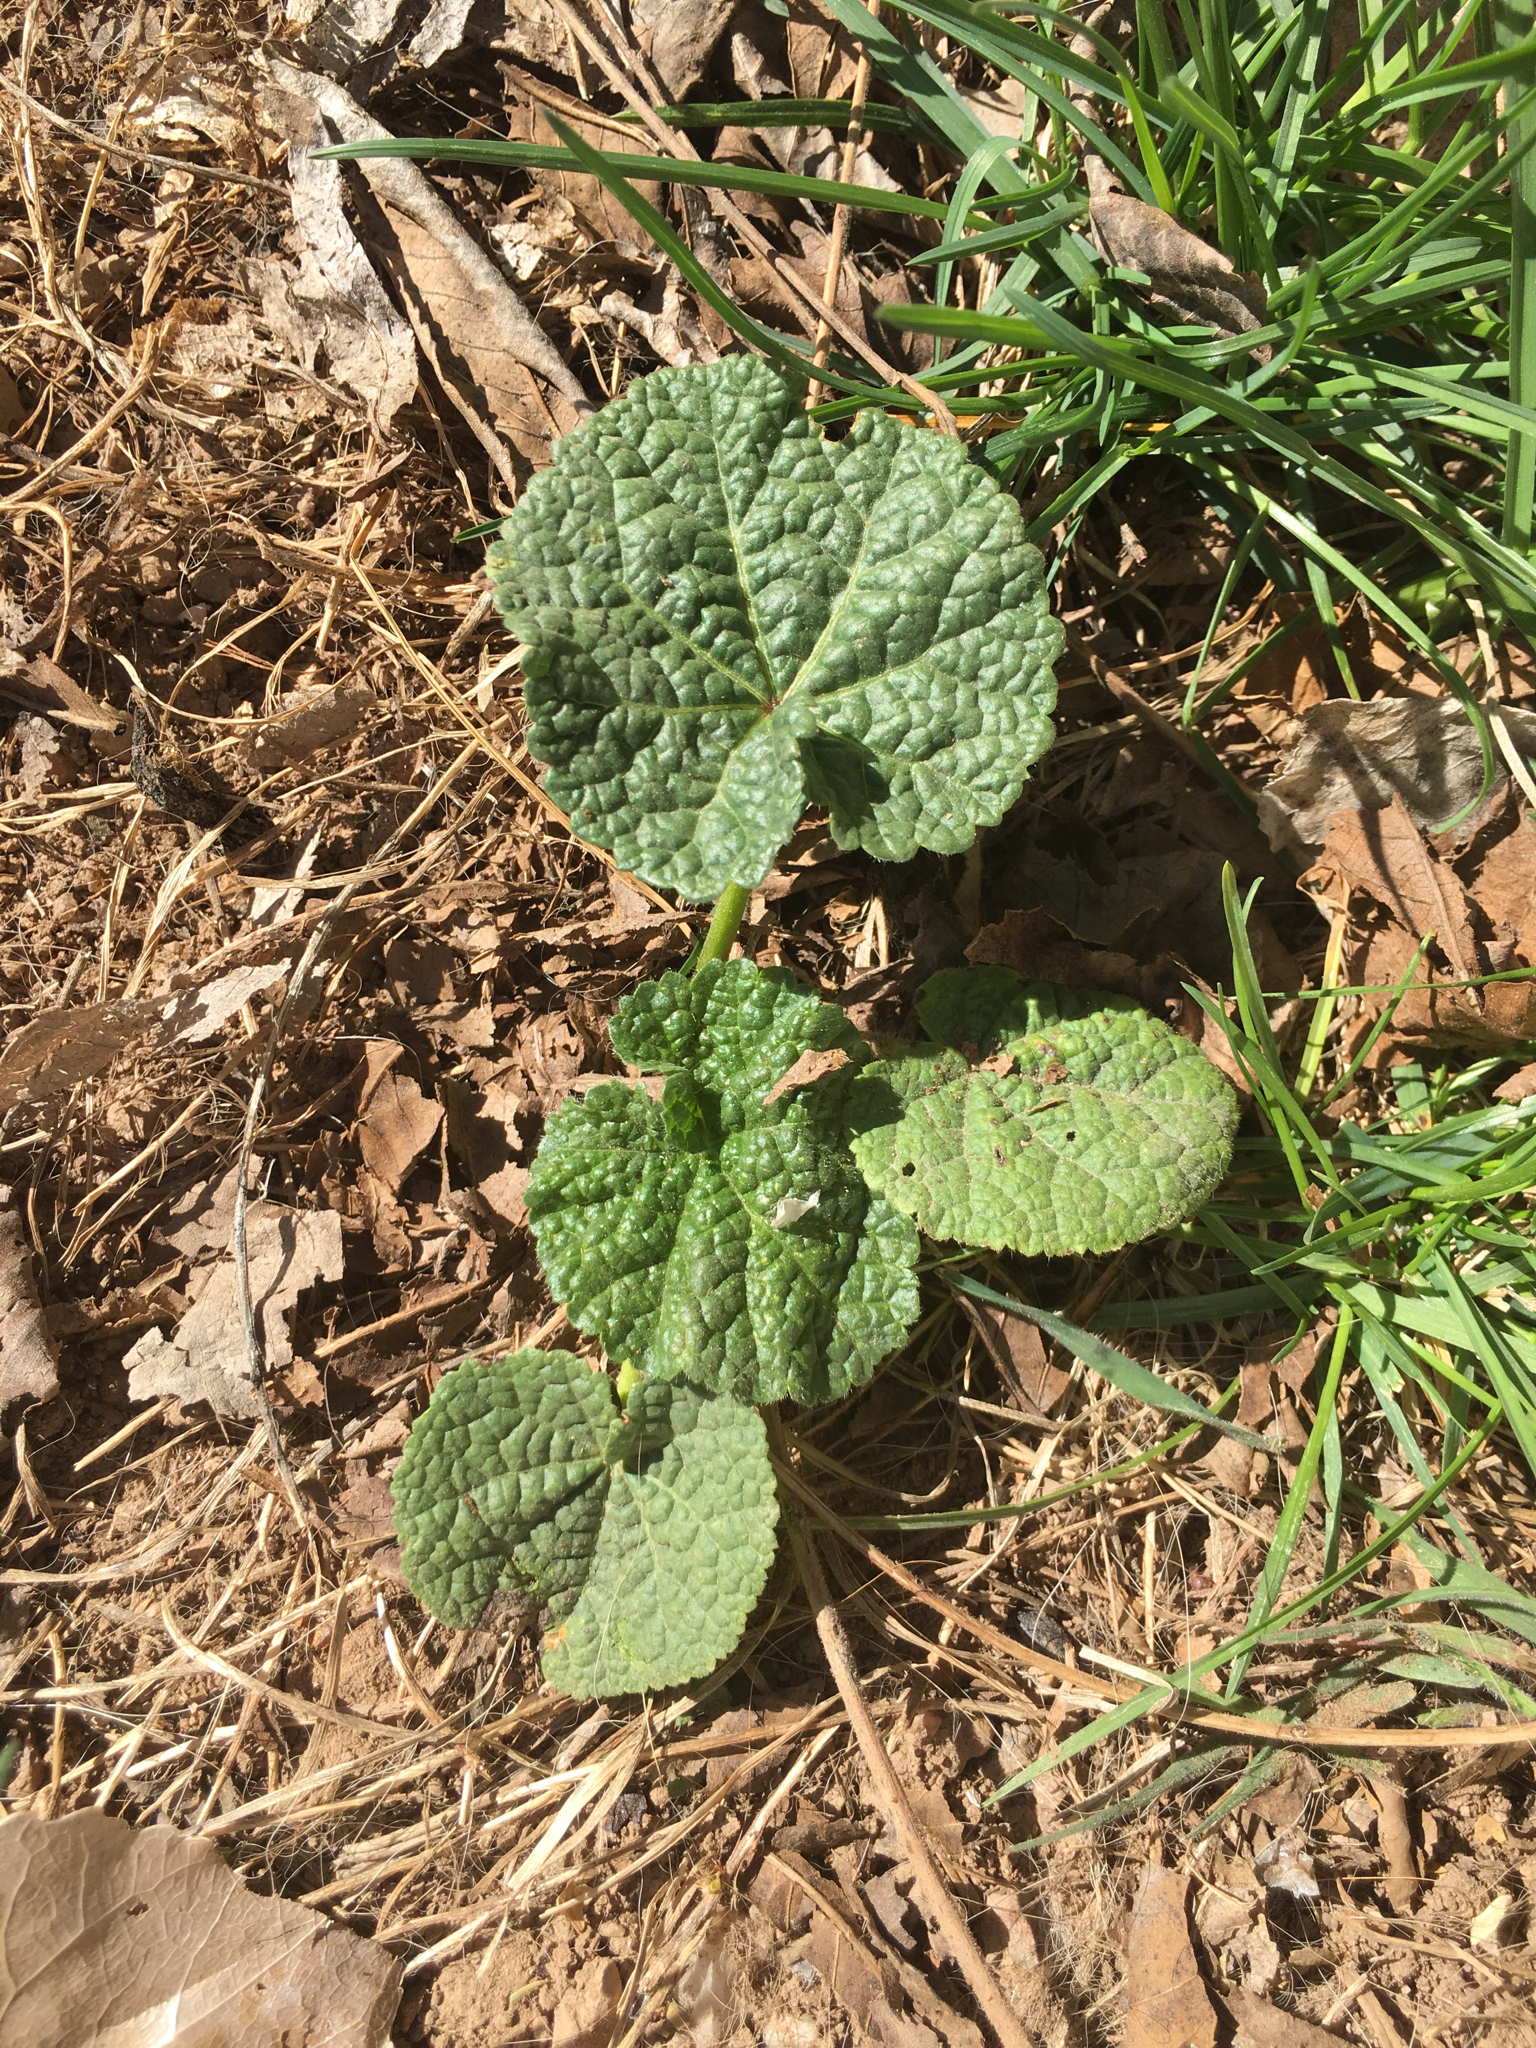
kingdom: Plantae
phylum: Tracheophyta
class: Magnoliopsida
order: Malvales
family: Malvaceae
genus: Malva
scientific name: Malva neglecta
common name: Common mallow
